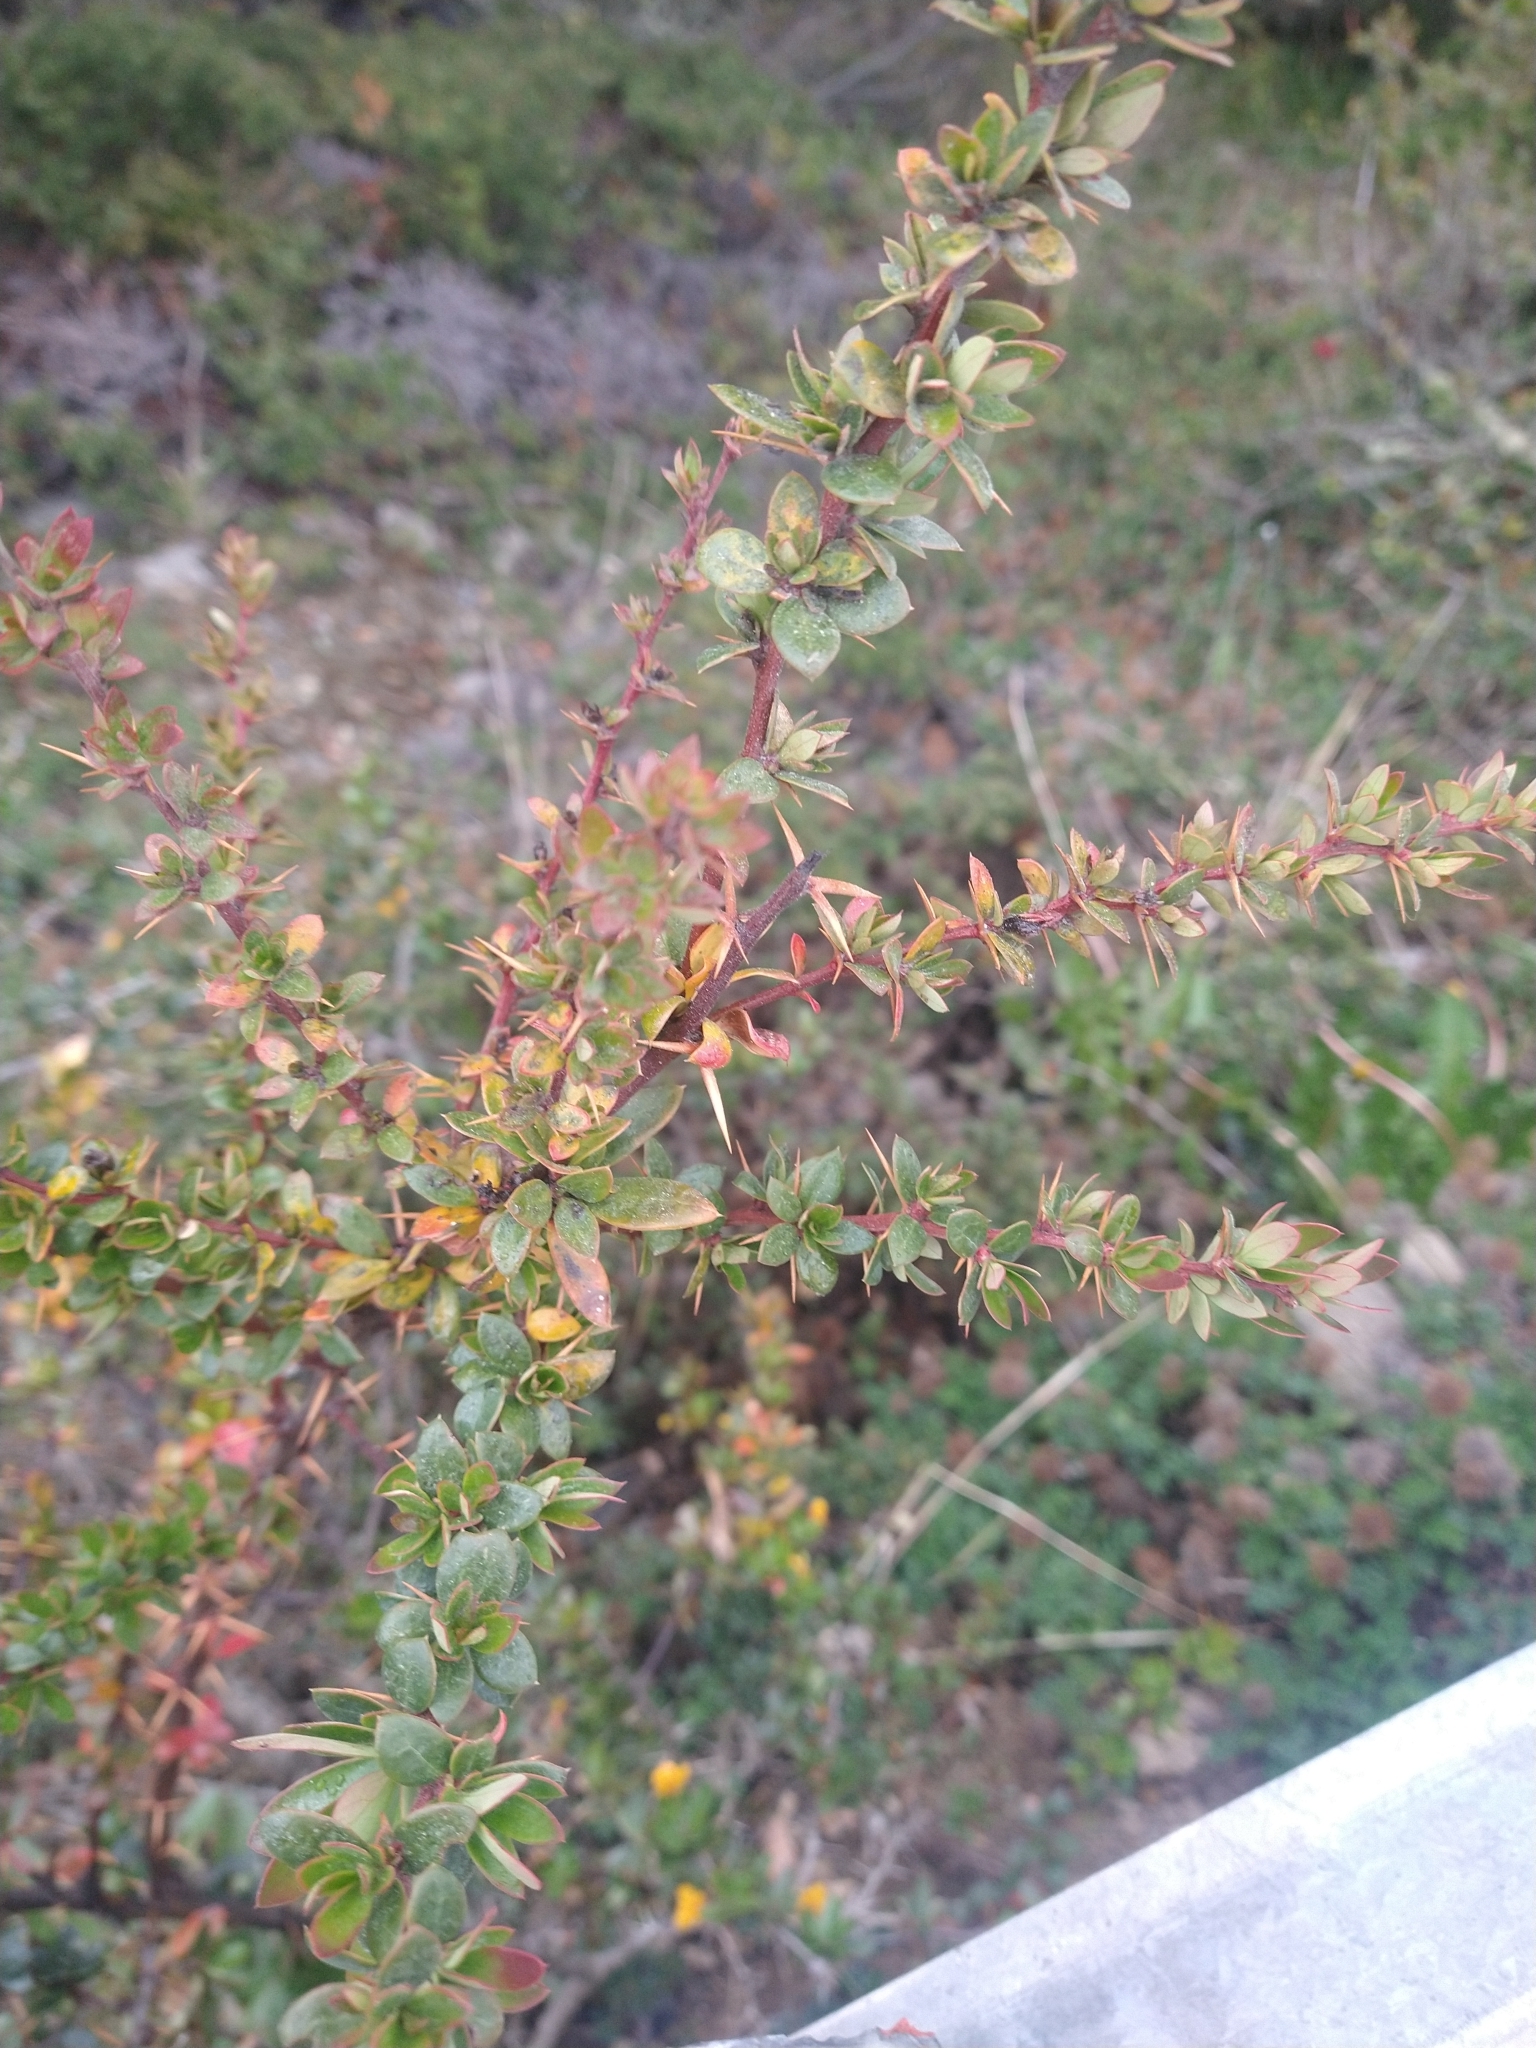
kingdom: Plantae
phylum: Tracheophyta
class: Magnoliopsida
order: Ranunculales
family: Berberidaceae
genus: Berberis
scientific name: Berberis microphylla
